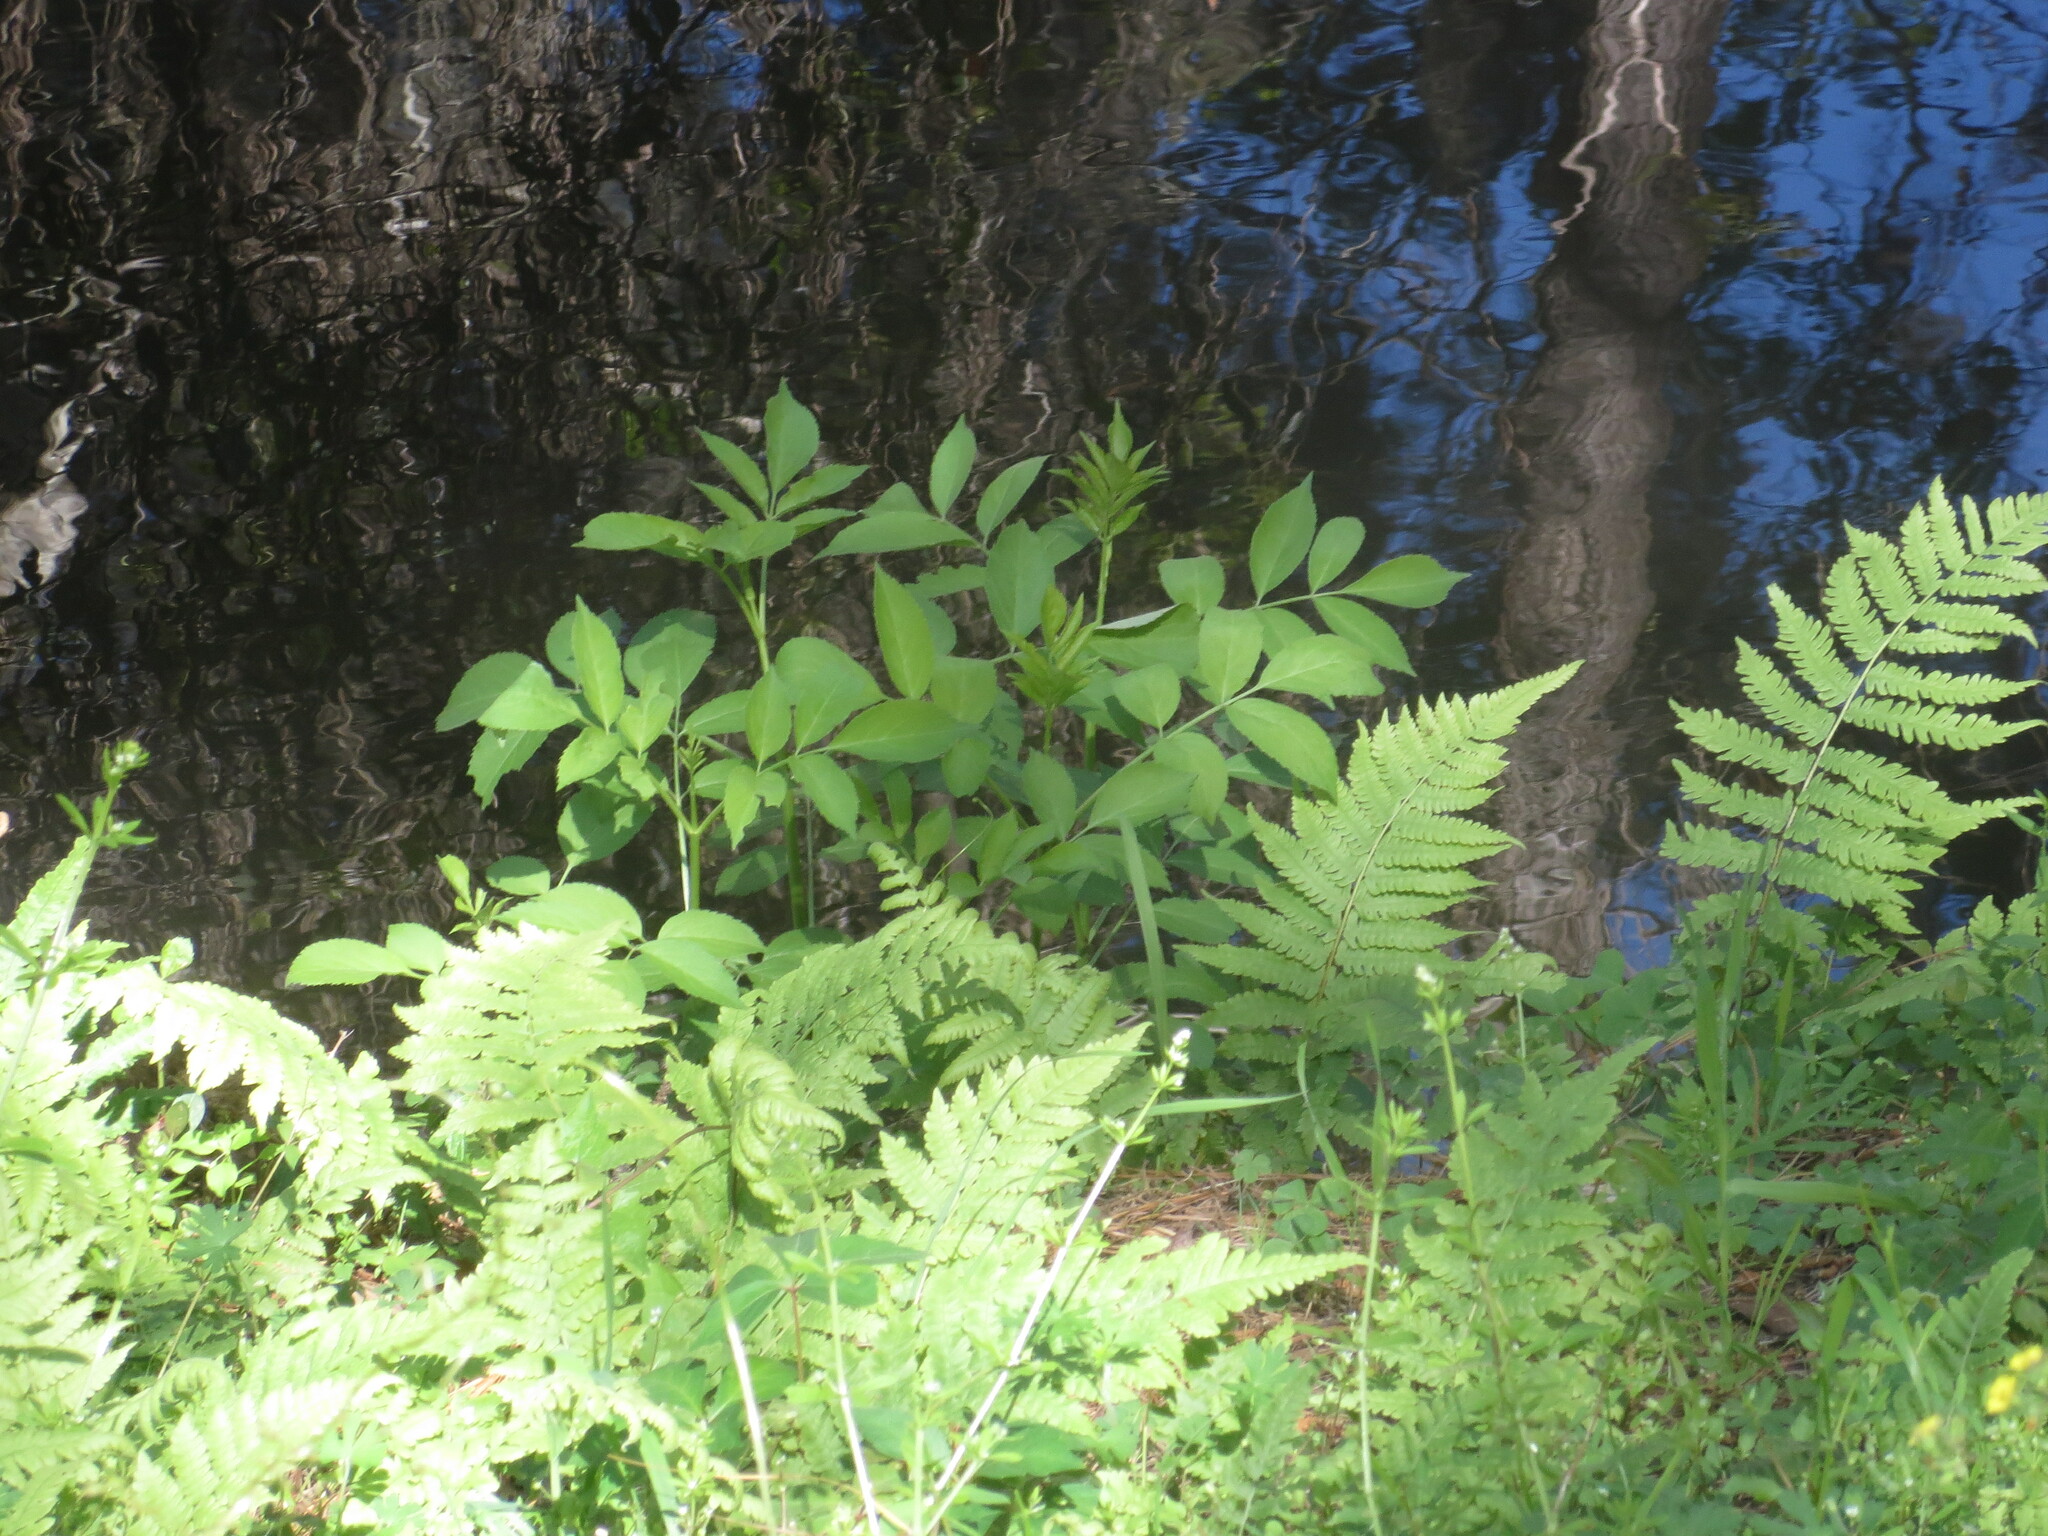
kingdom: Plantae
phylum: Tracheophyta
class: Magnoliopsida
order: Dipsacales
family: Viburnaceae
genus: Sambucus
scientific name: Sambucus canadensis
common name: American elder
